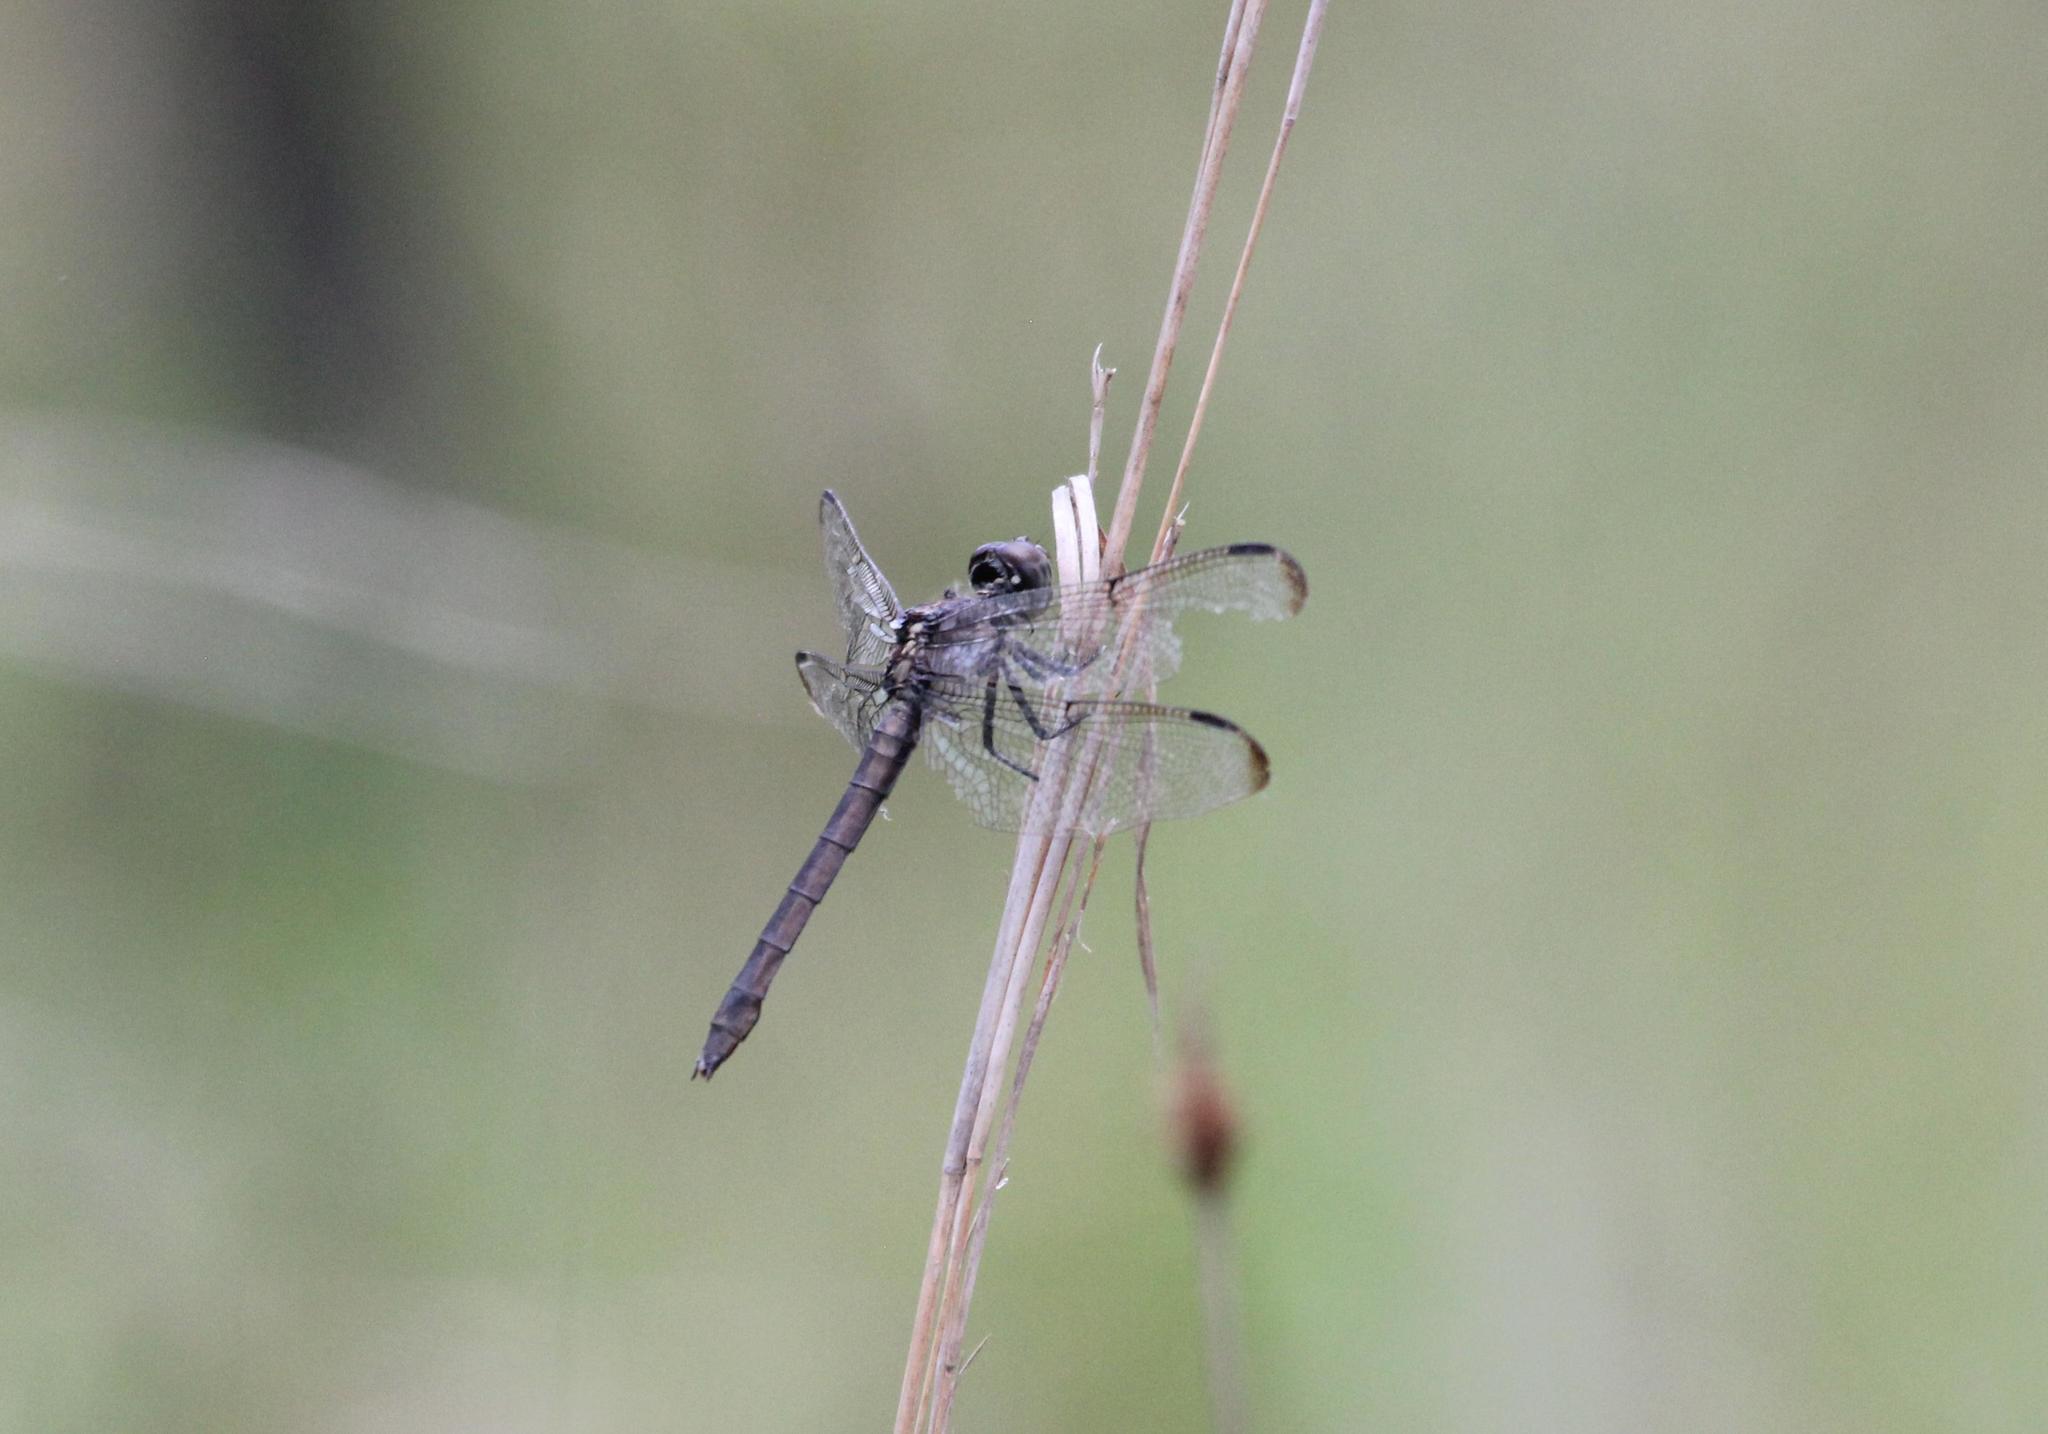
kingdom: Animalia
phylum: Arthropoda
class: Insecta
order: Odonata
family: Libellulidae
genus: Libellula
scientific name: Libellula incesta
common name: Slaty skimmer
